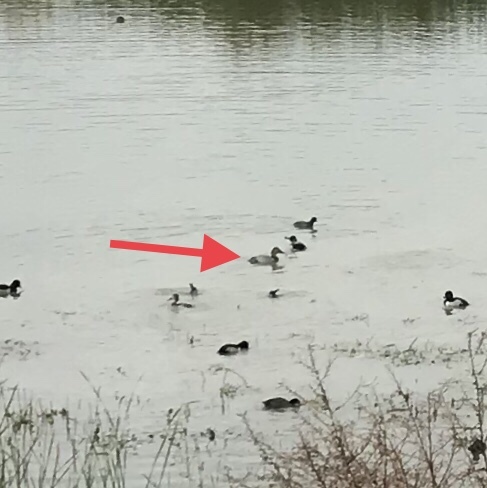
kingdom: Animalia
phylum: Chordata
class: Aves
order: Anseriformes
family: Anatidae
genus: Aythya
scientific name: Aythya valisineria
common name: Canvasback
